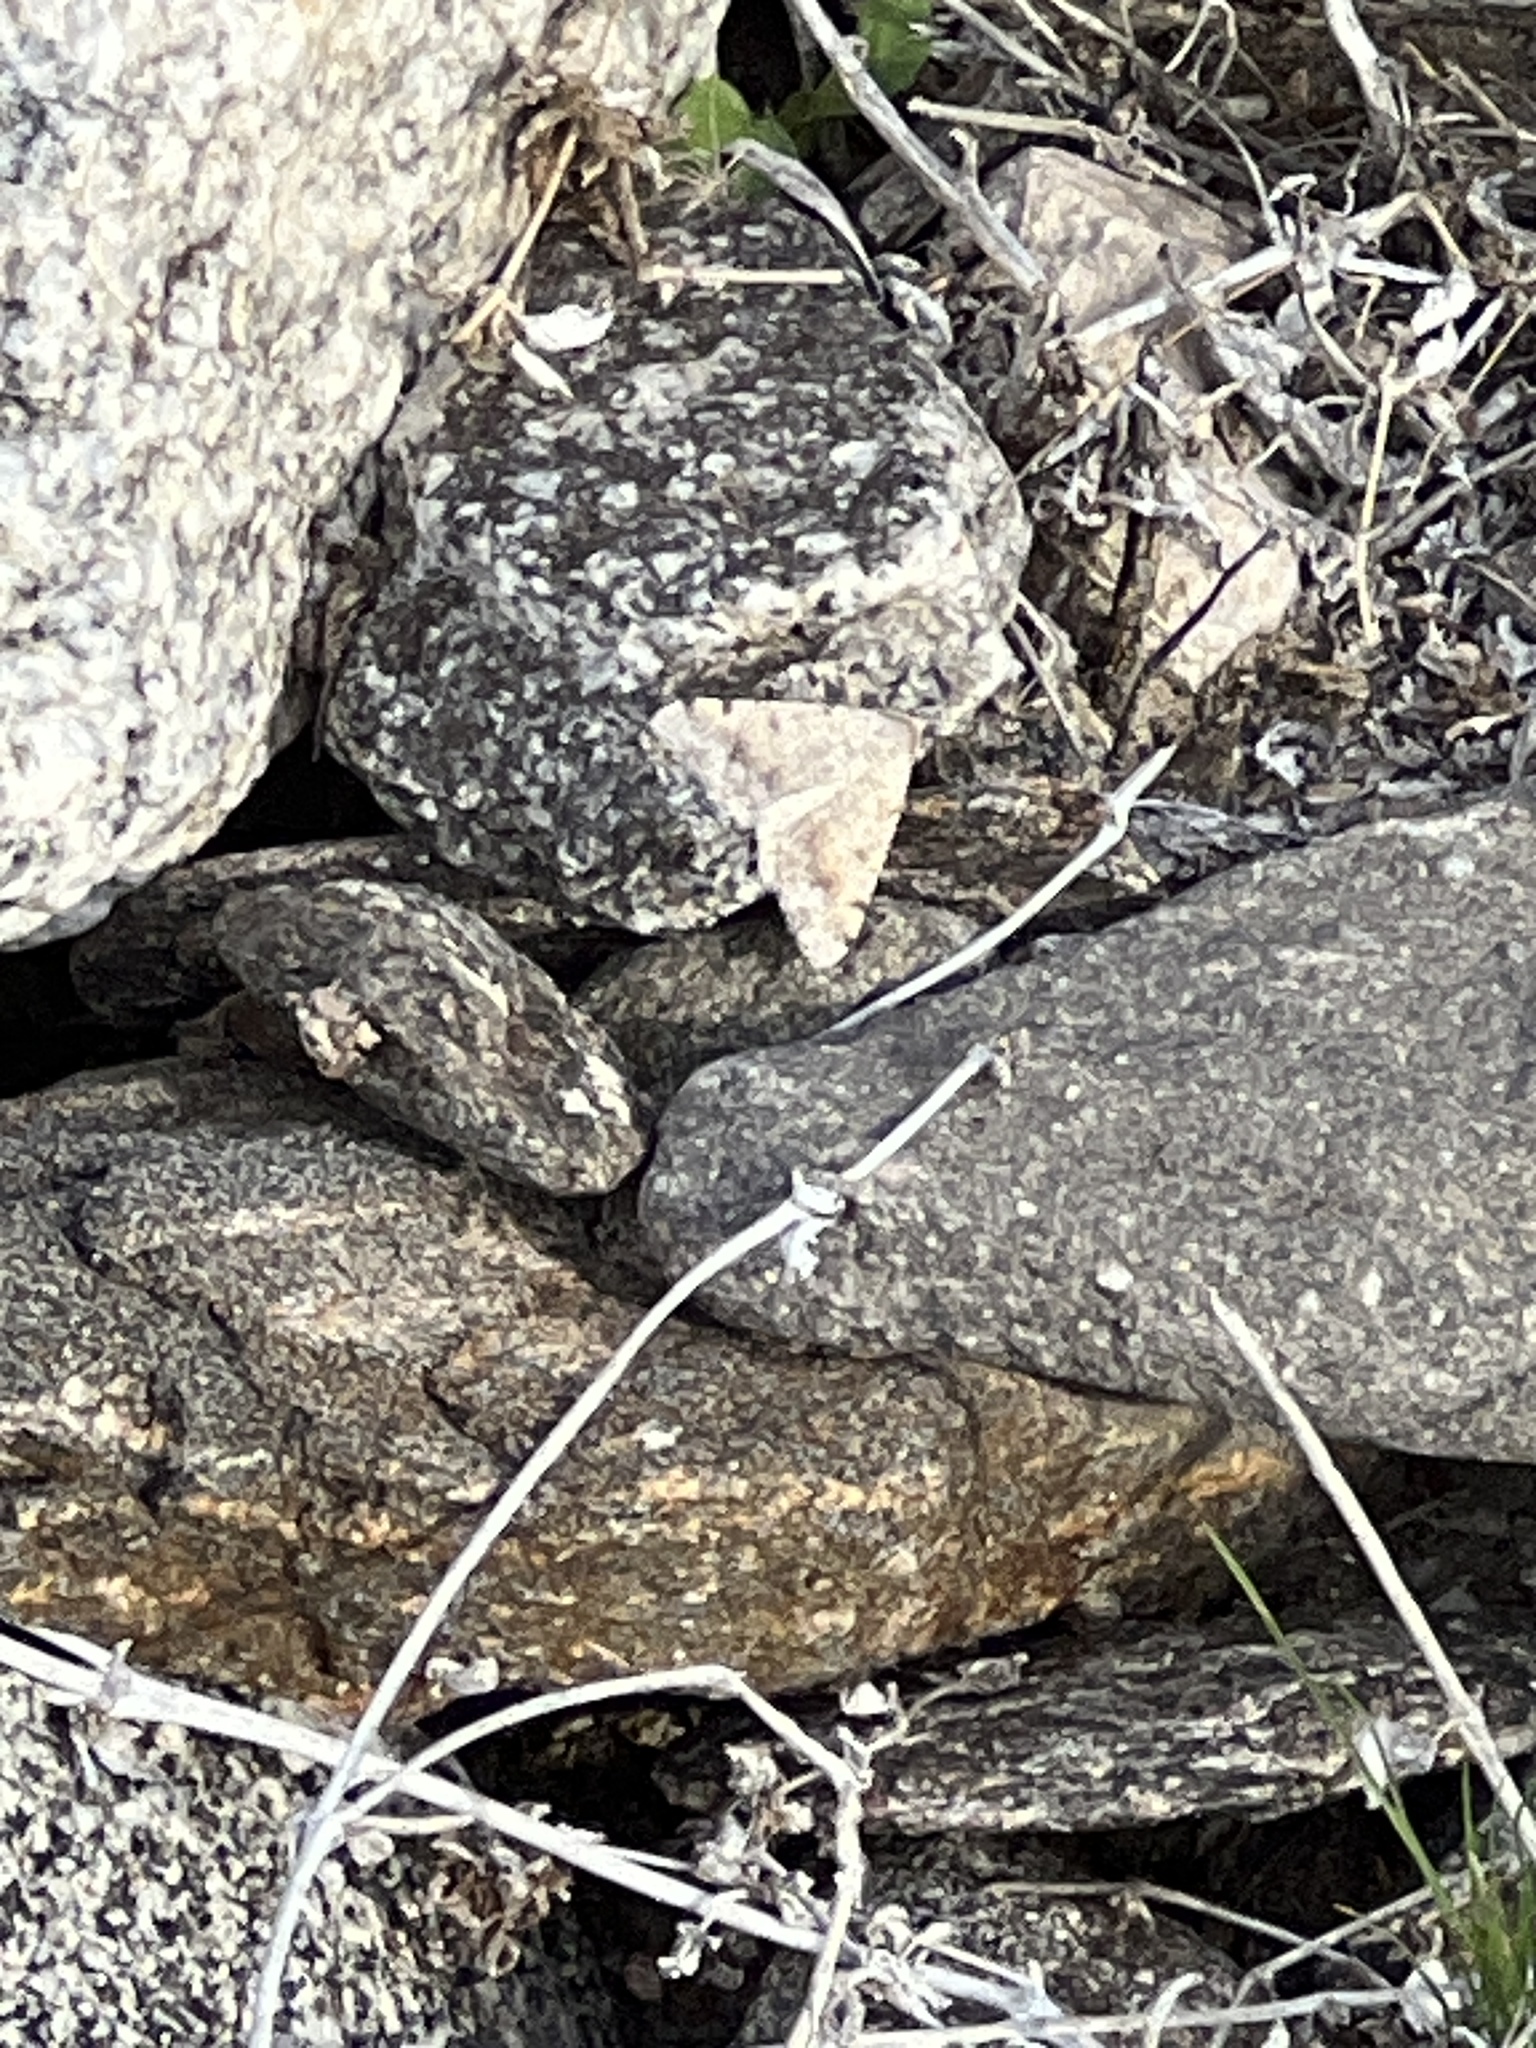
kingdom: Animalia
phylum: Arthropoda
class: Insecta
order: Lepidoptera
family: Geometridae
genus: Digrammia
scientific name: Digrammia colorata
